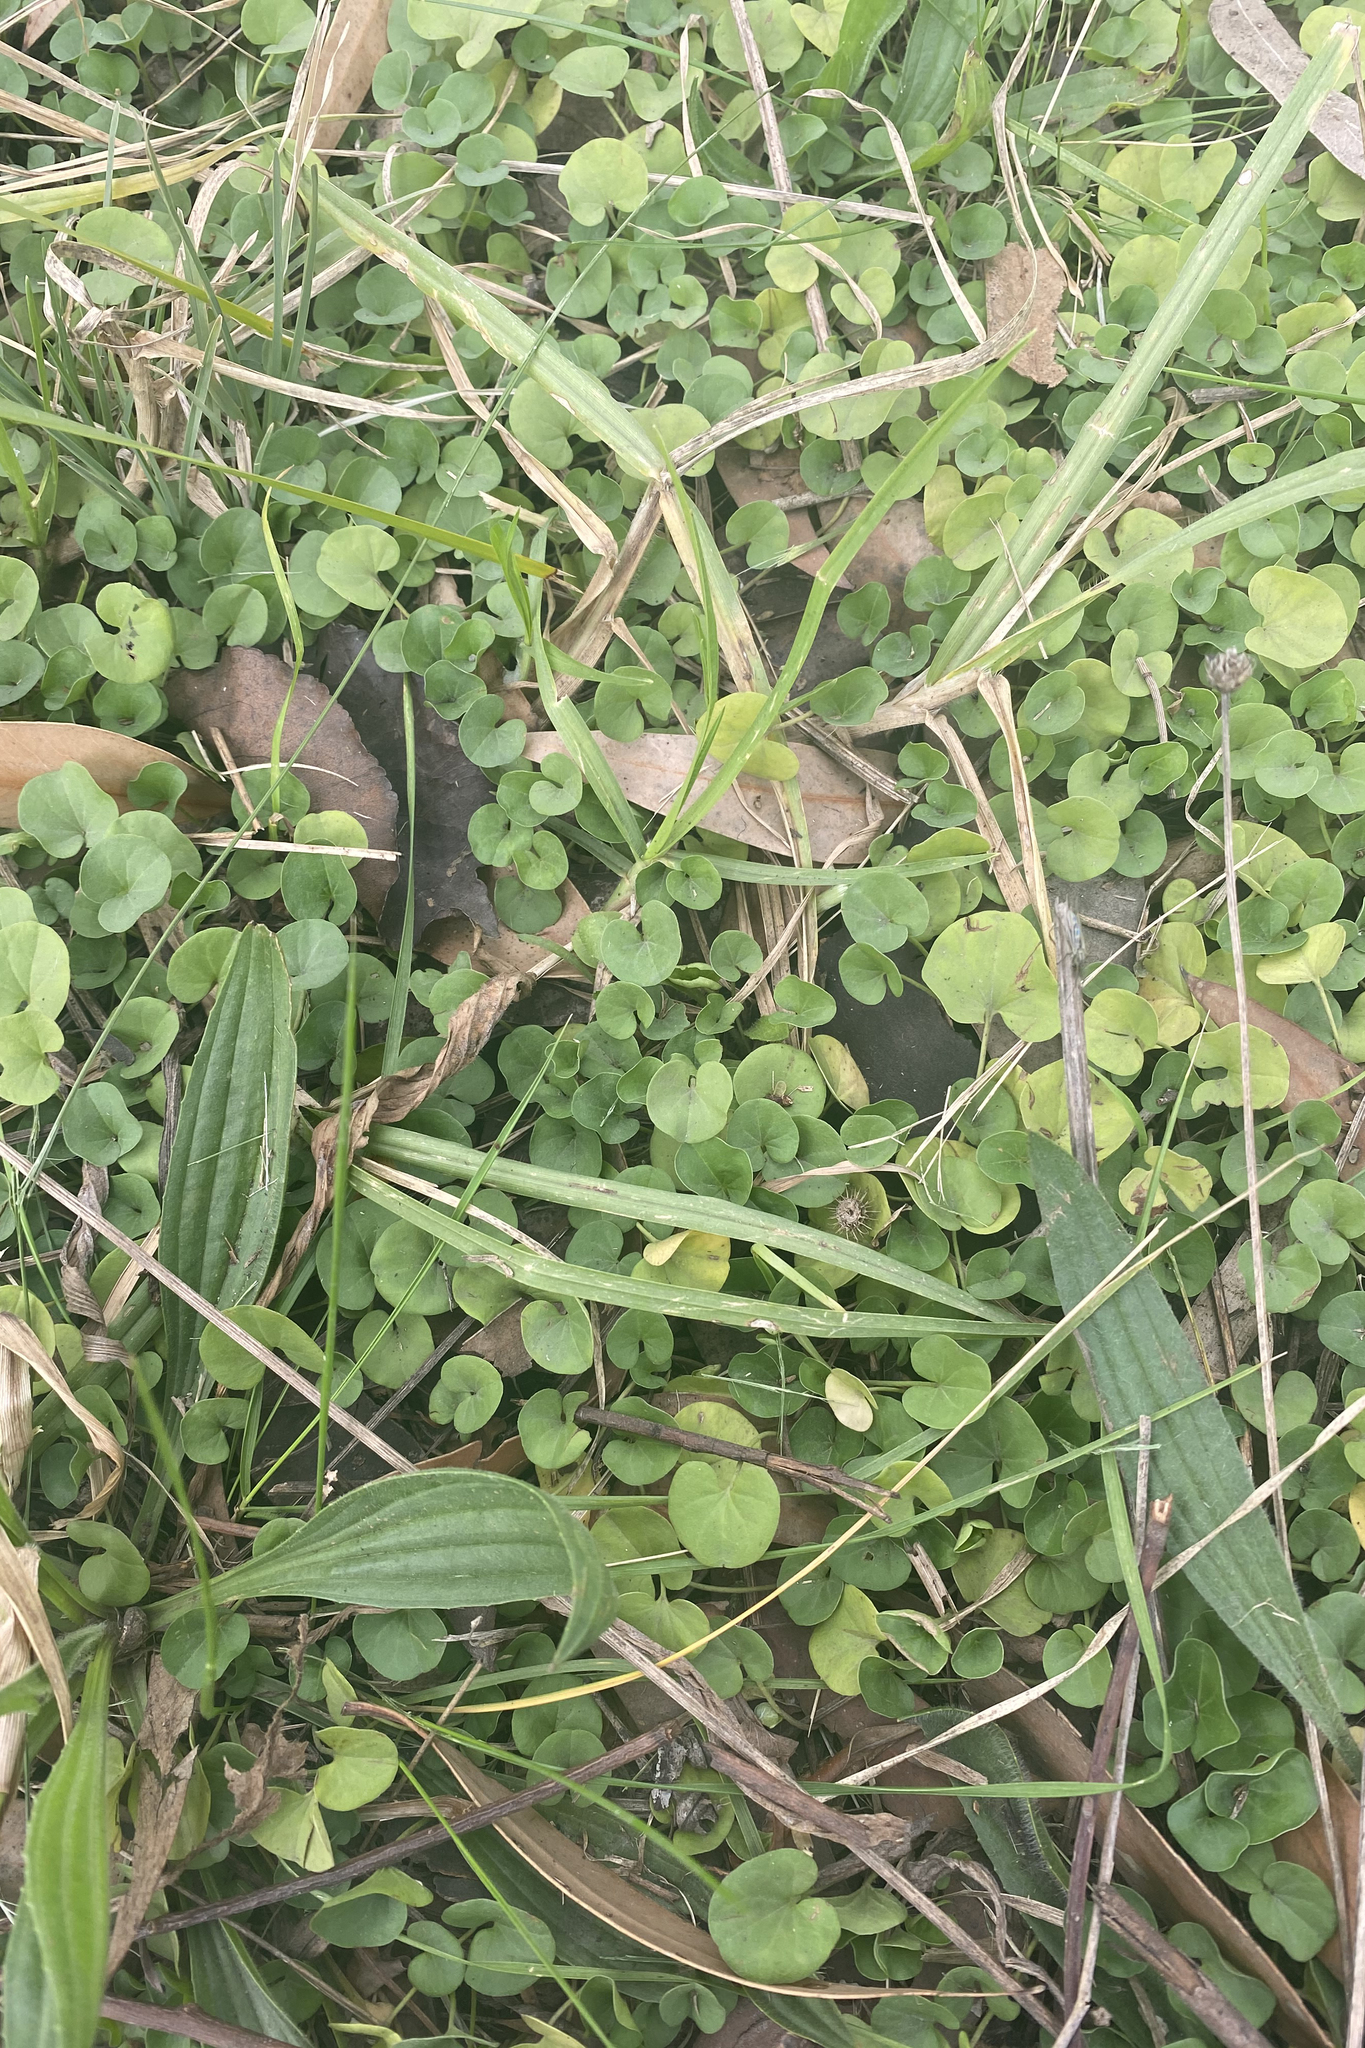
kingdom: Plantae
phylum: Tracheophyta
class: Magnoliopsida
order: Solanales
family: Convolvulaceae
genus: Dichondra
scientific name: Dichondra repens
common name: Kidneyweed
